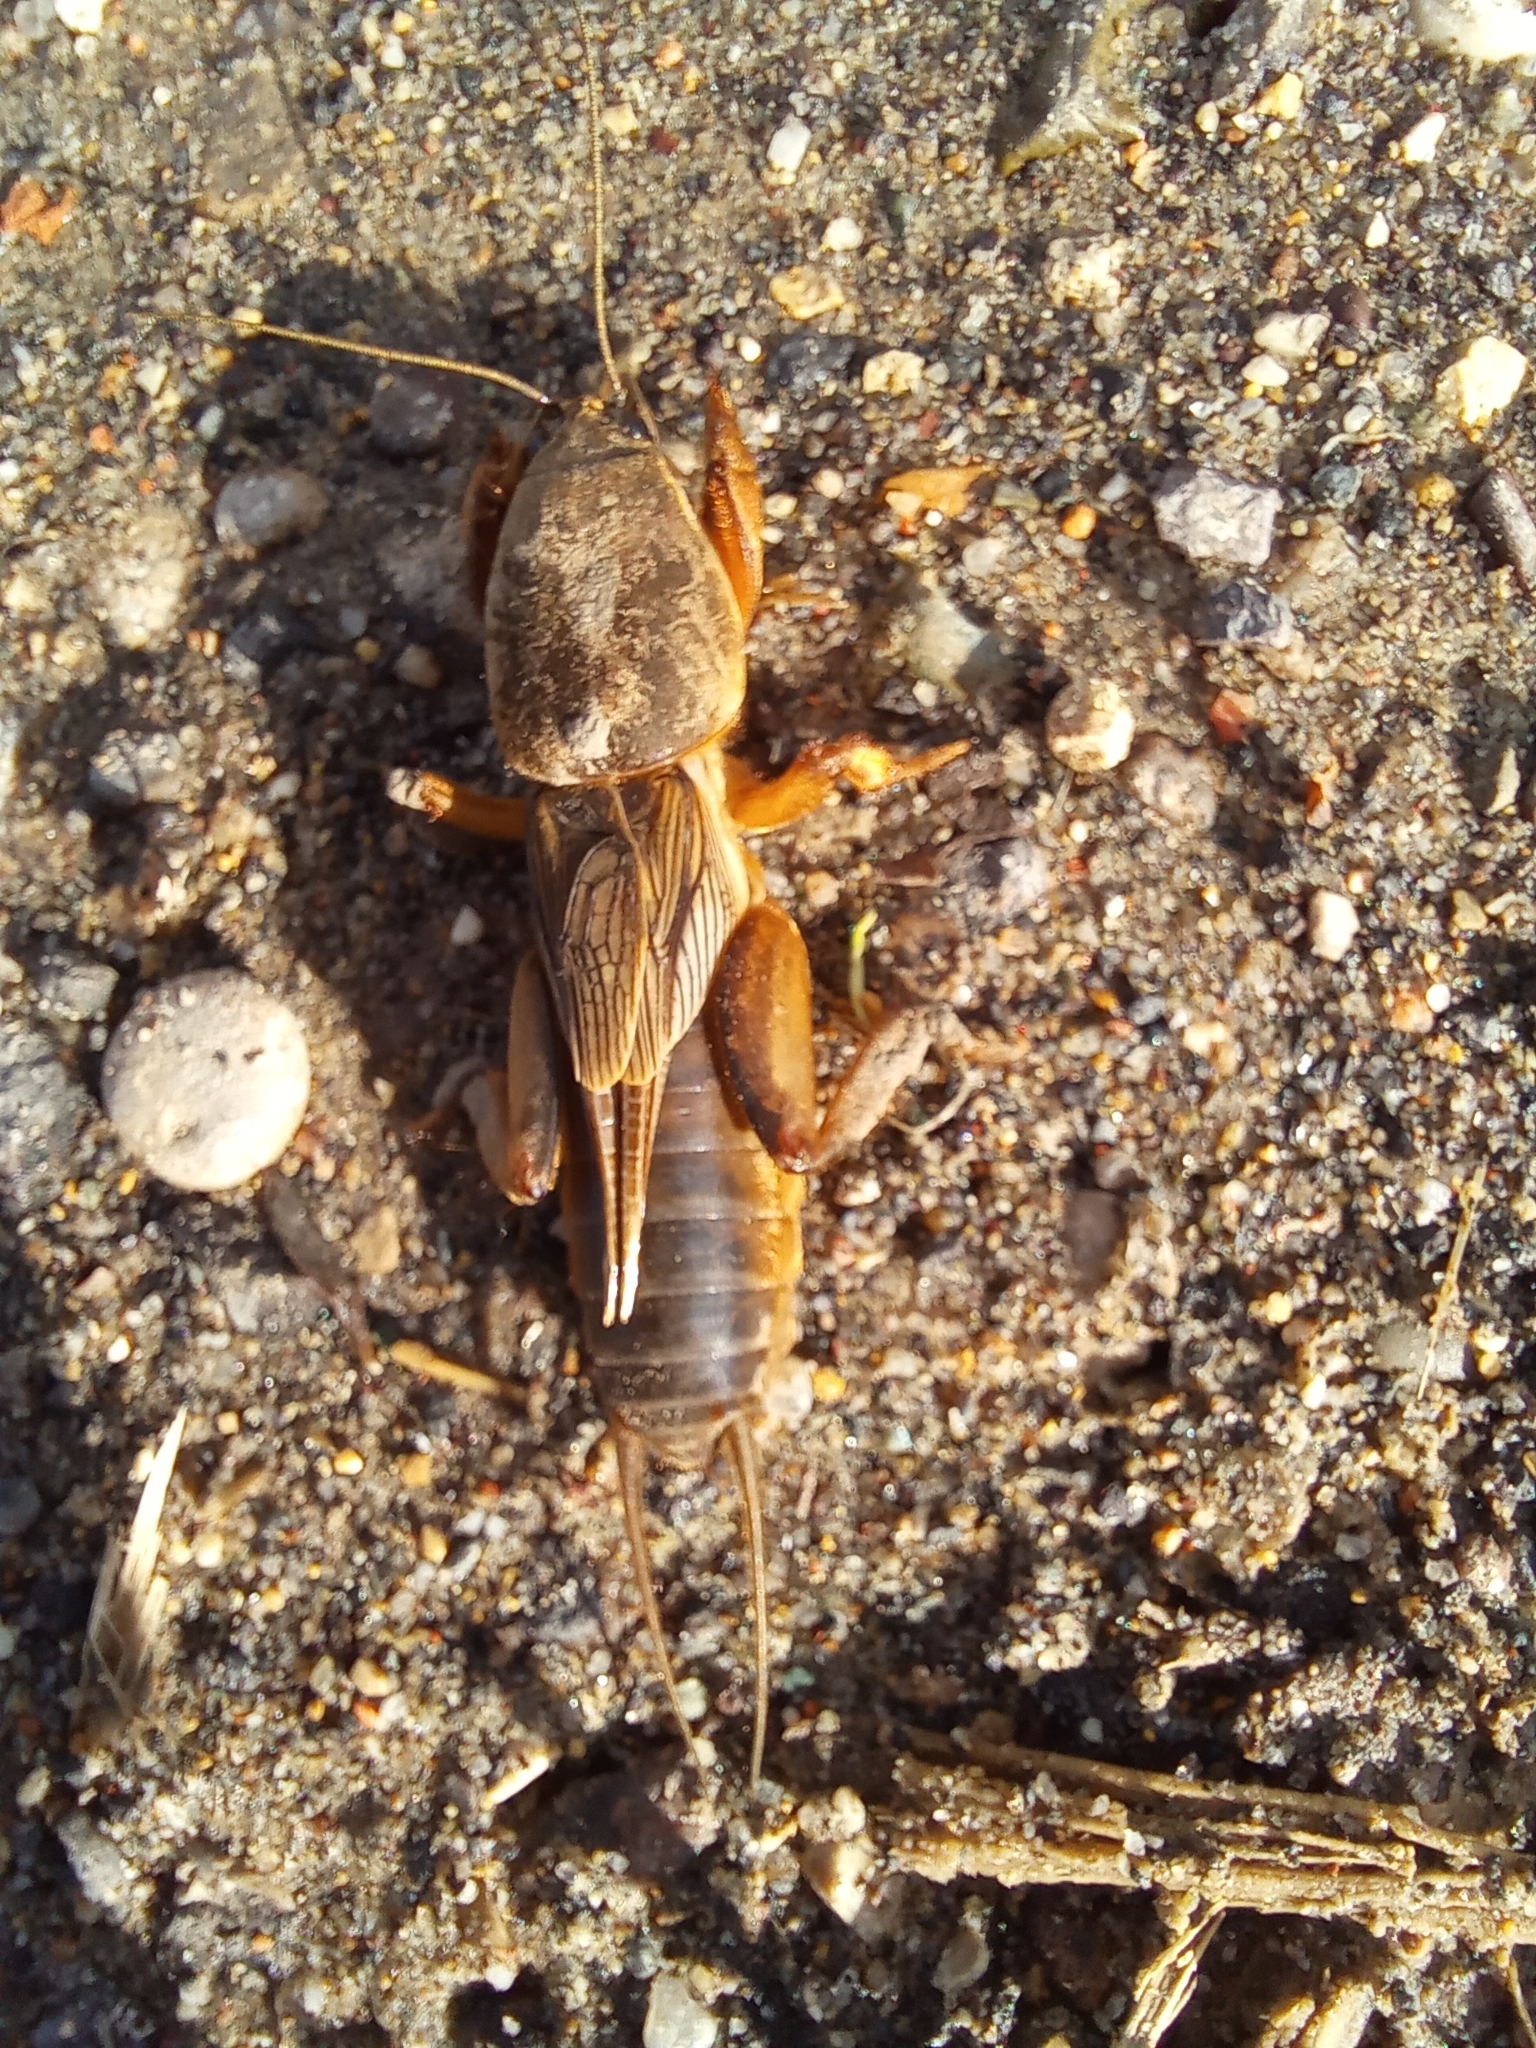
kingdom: Animalia
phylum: Arthropoda
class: Insecta
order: Orthoptera
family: Gryllotalpidae
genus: Gryllotalpa
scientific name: Gryllotalpa gryllotalpa
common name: European mole cricket
